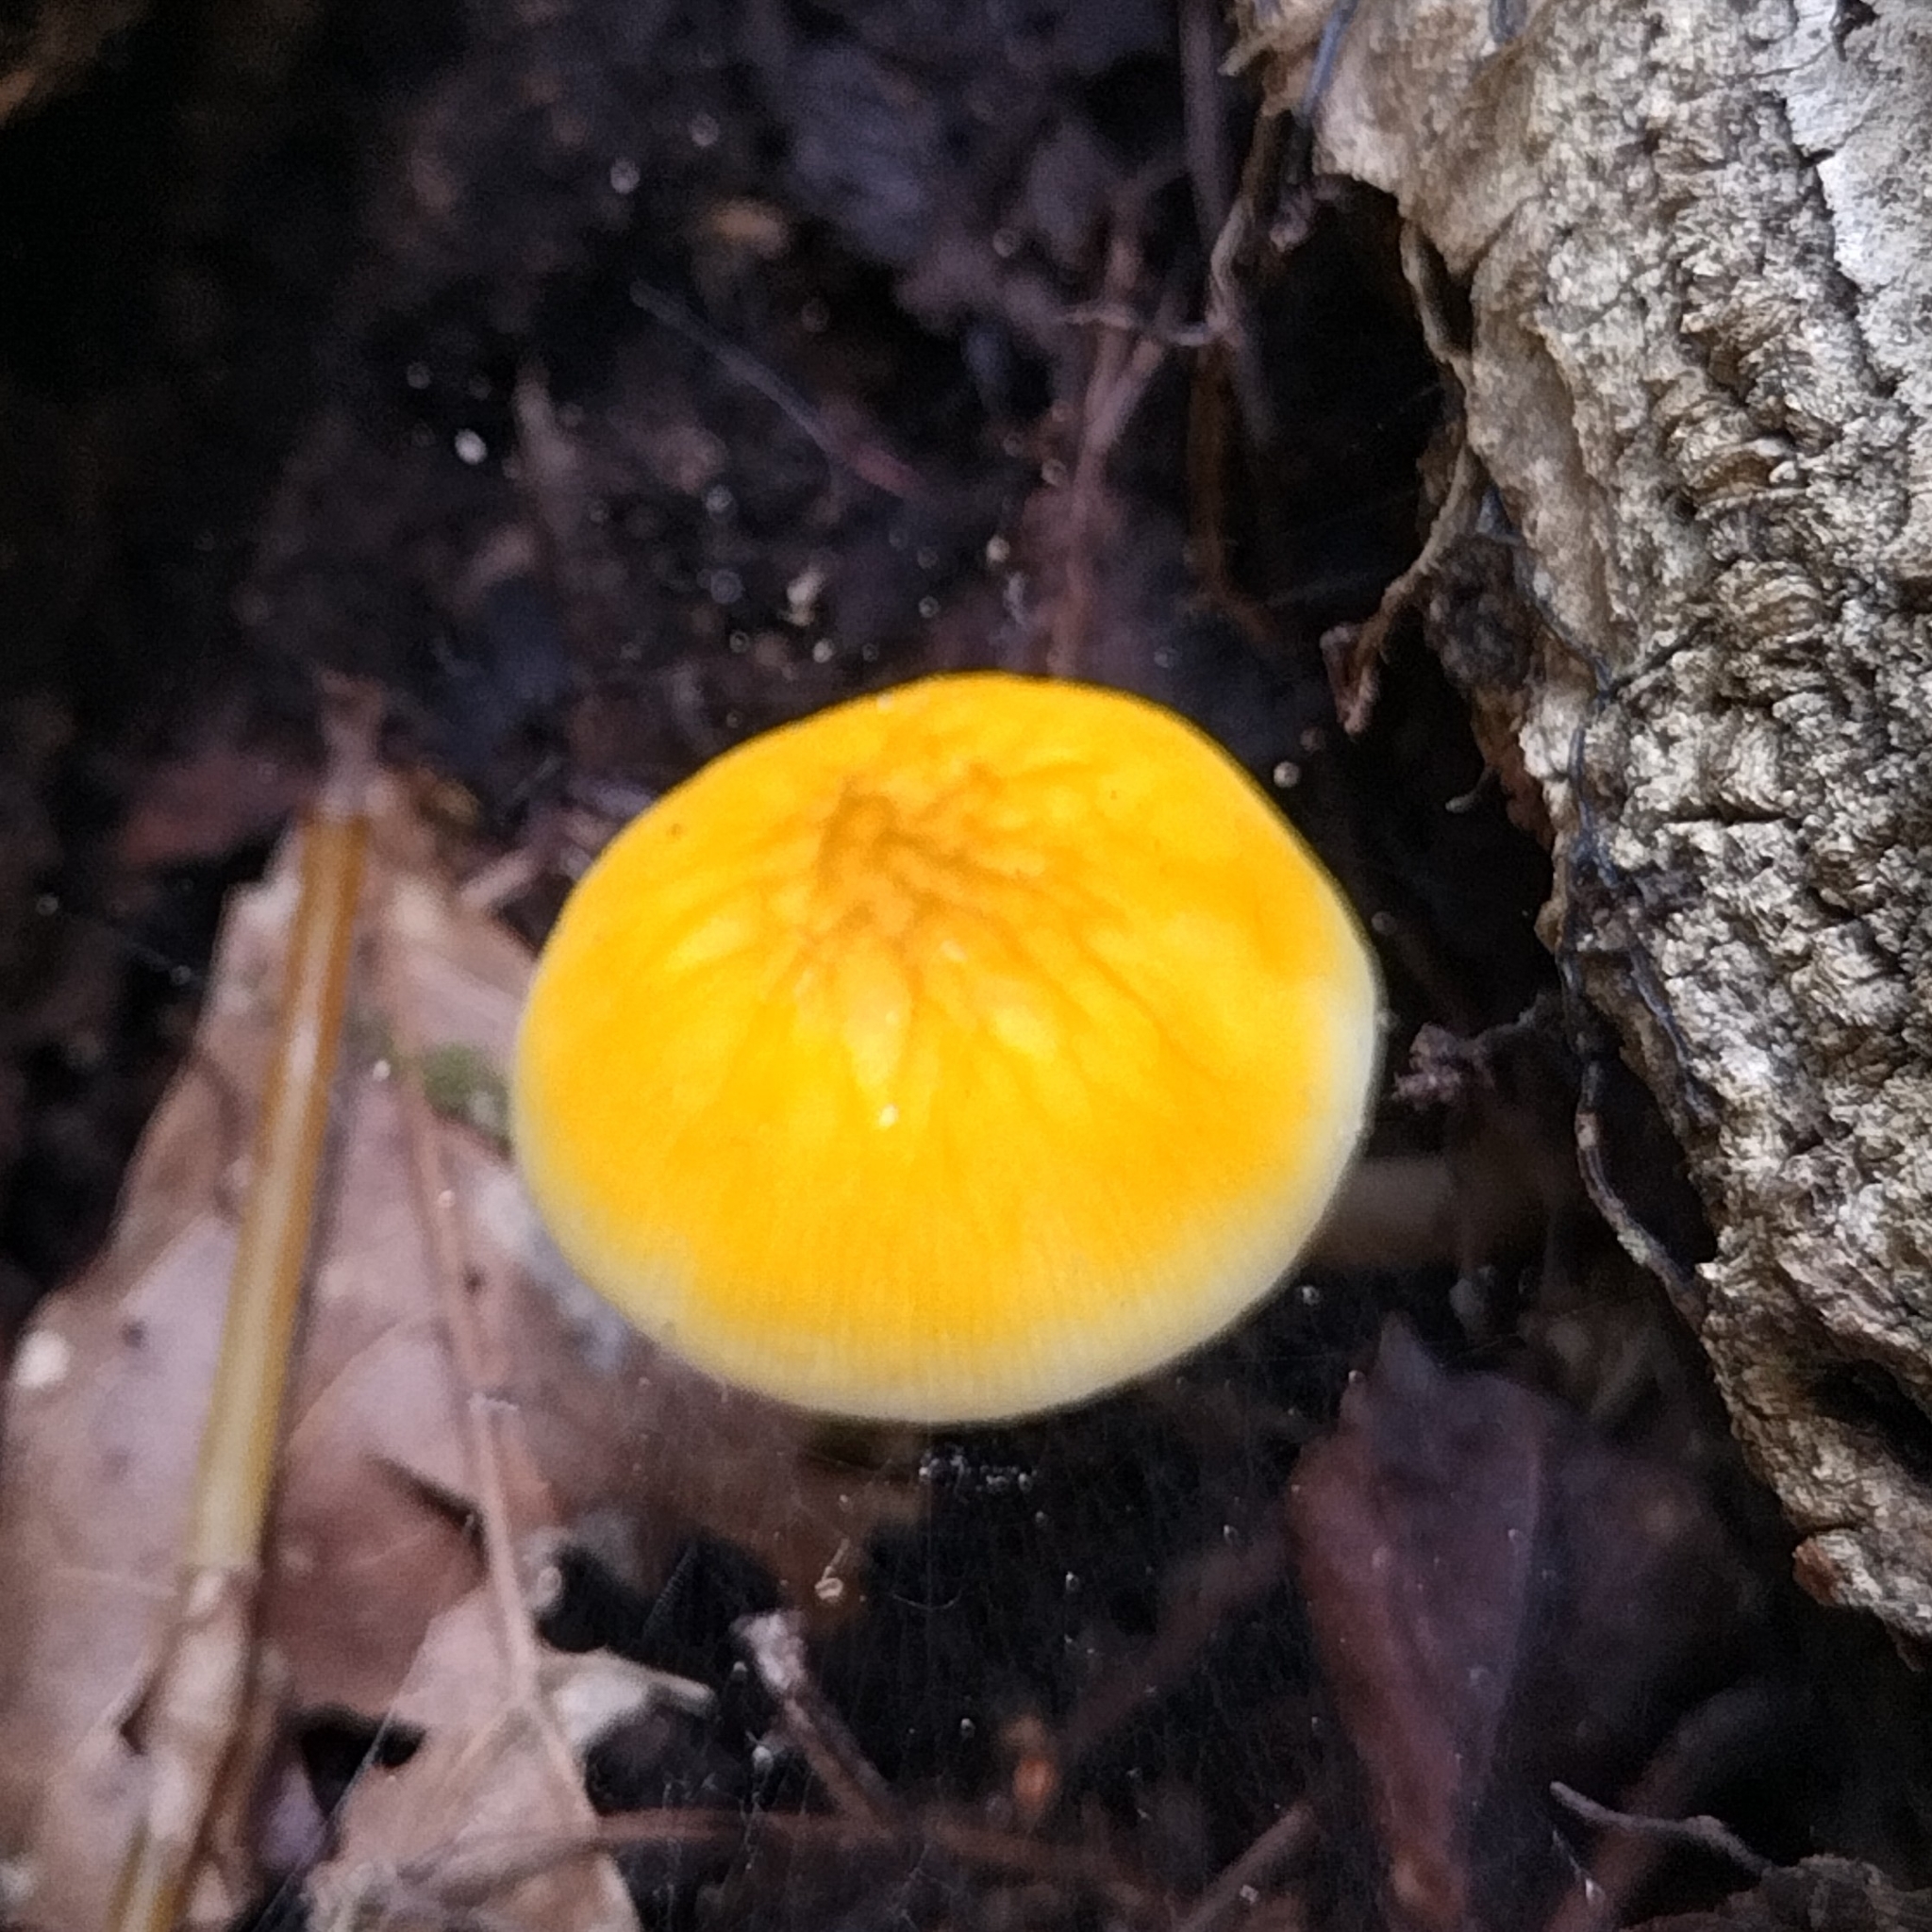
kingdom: Fungi
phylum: Basidiomycota
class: Agaricomycetes
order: Agaricales
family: Pluteaceae
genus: Pluteus
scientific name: Pluteus chrysophlebius
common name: Yellow deer mushroom
